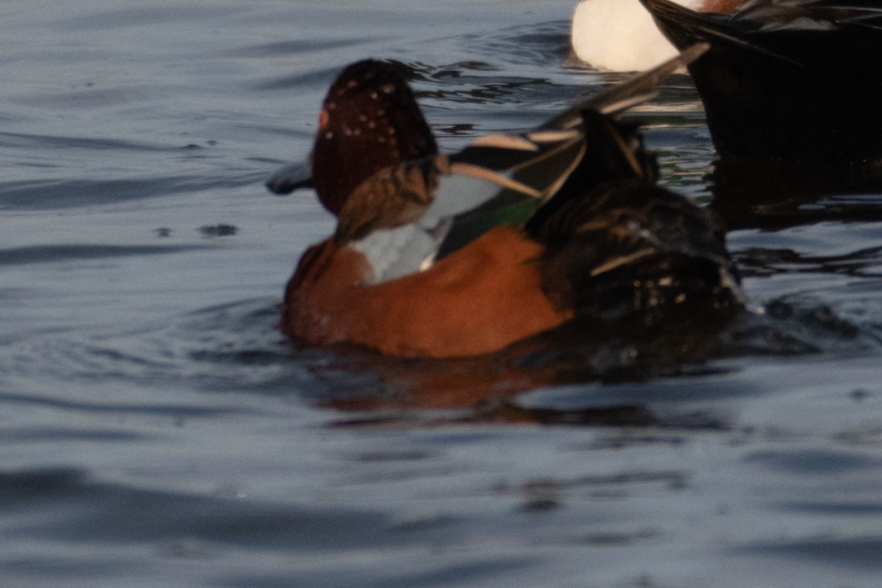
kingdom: Animalia
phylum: Chordata
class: Aves
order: Anseriformes
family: Anatidae
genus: Spatula
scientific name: Spatula cyanoptera
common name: Cinnamon teal
